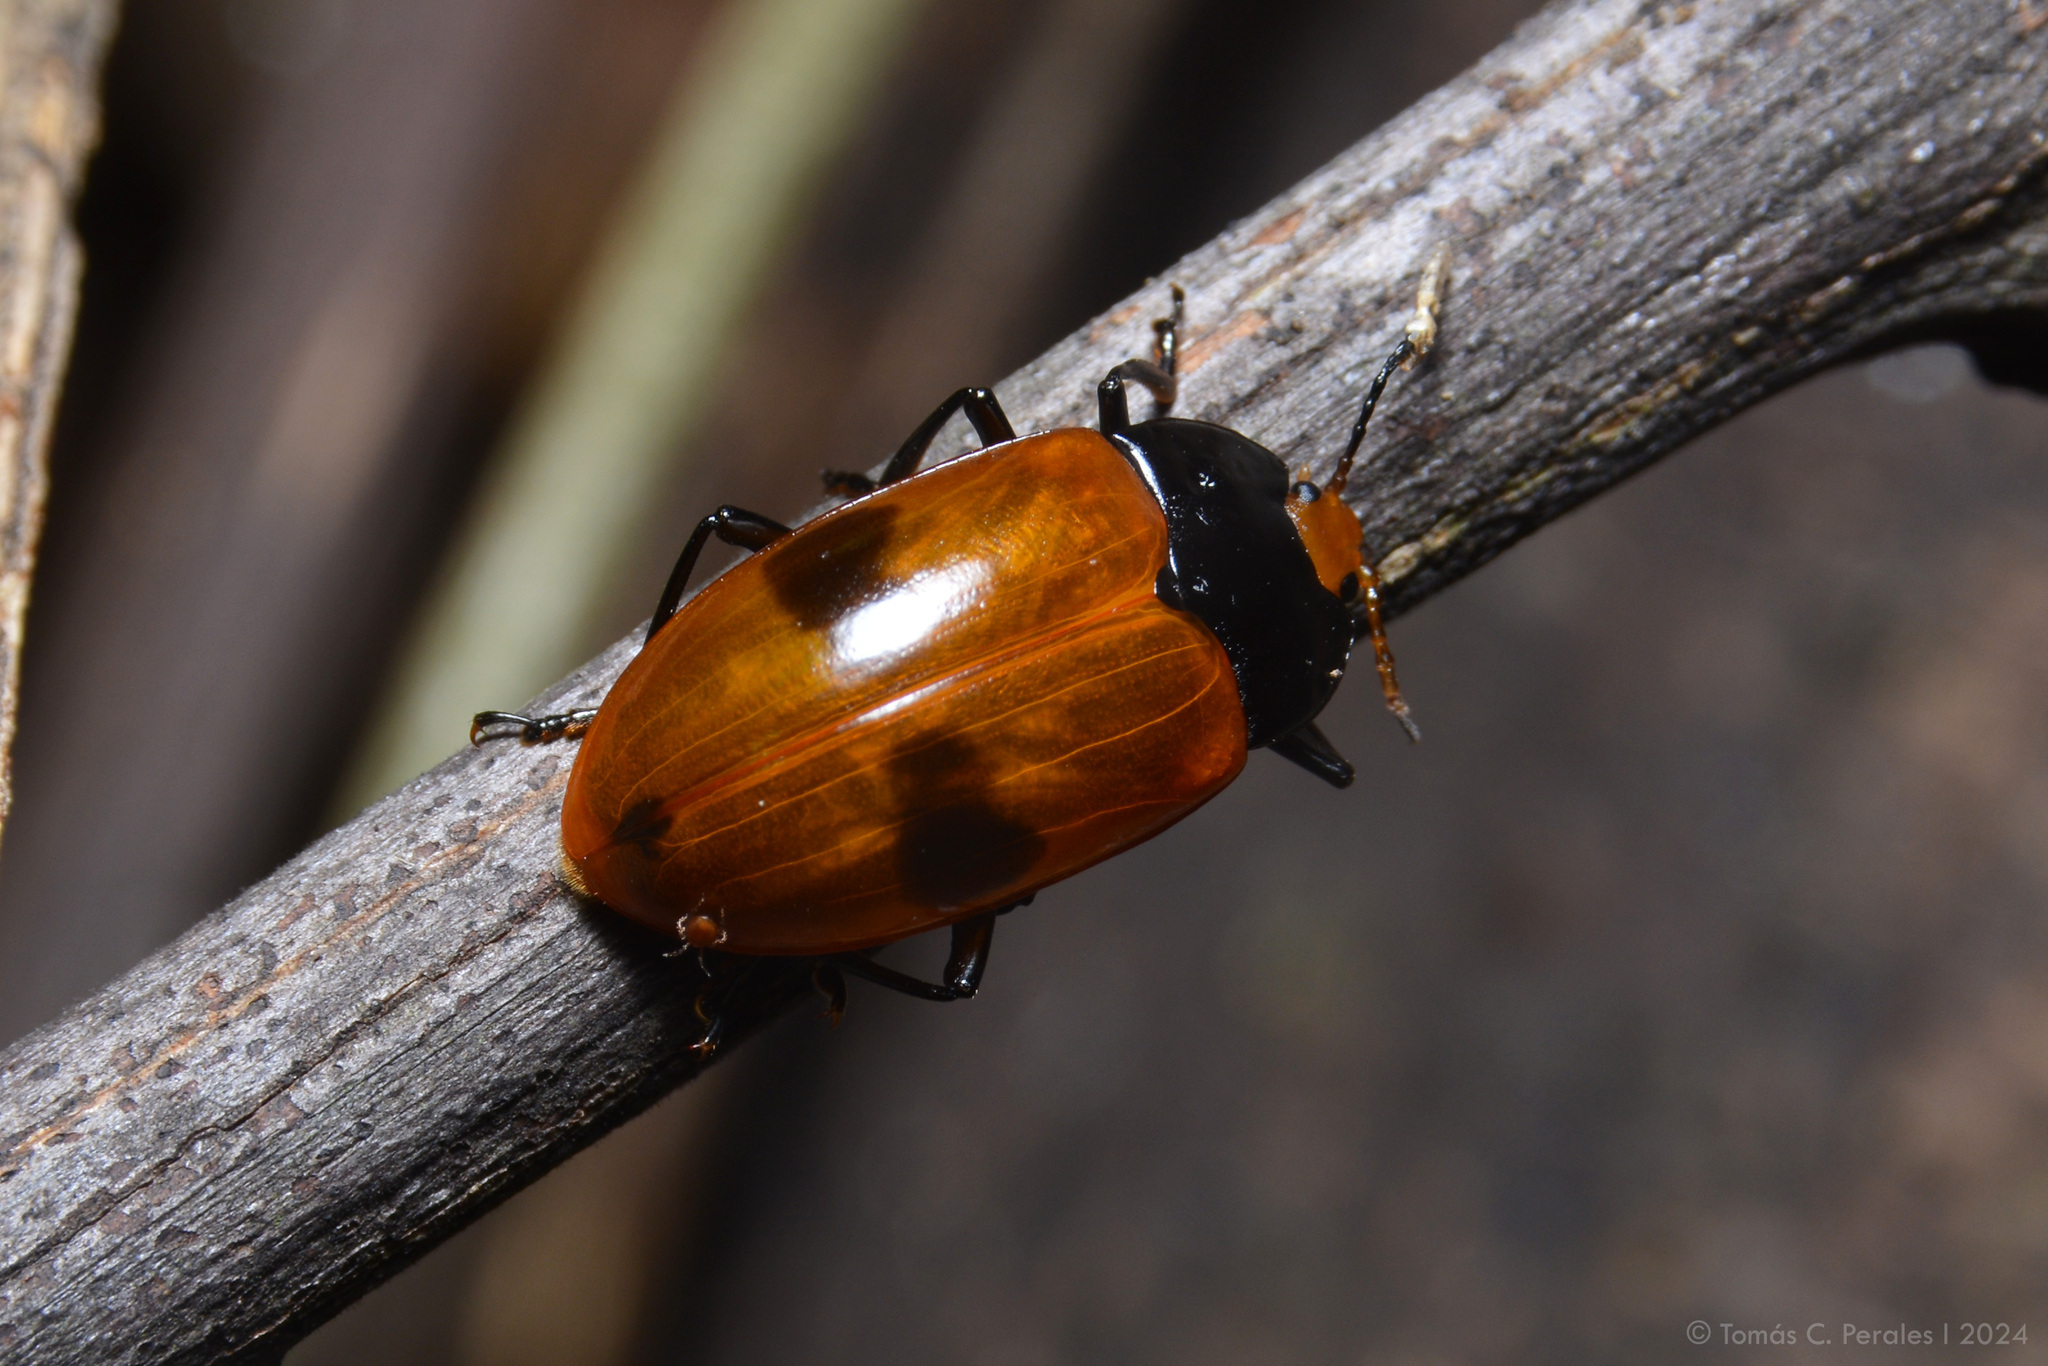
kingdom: Animalia
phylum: Arthropoda
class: Insecta
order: Coleoptera
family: Erotylidae
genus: Iphiclus
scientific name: Iphiclus
